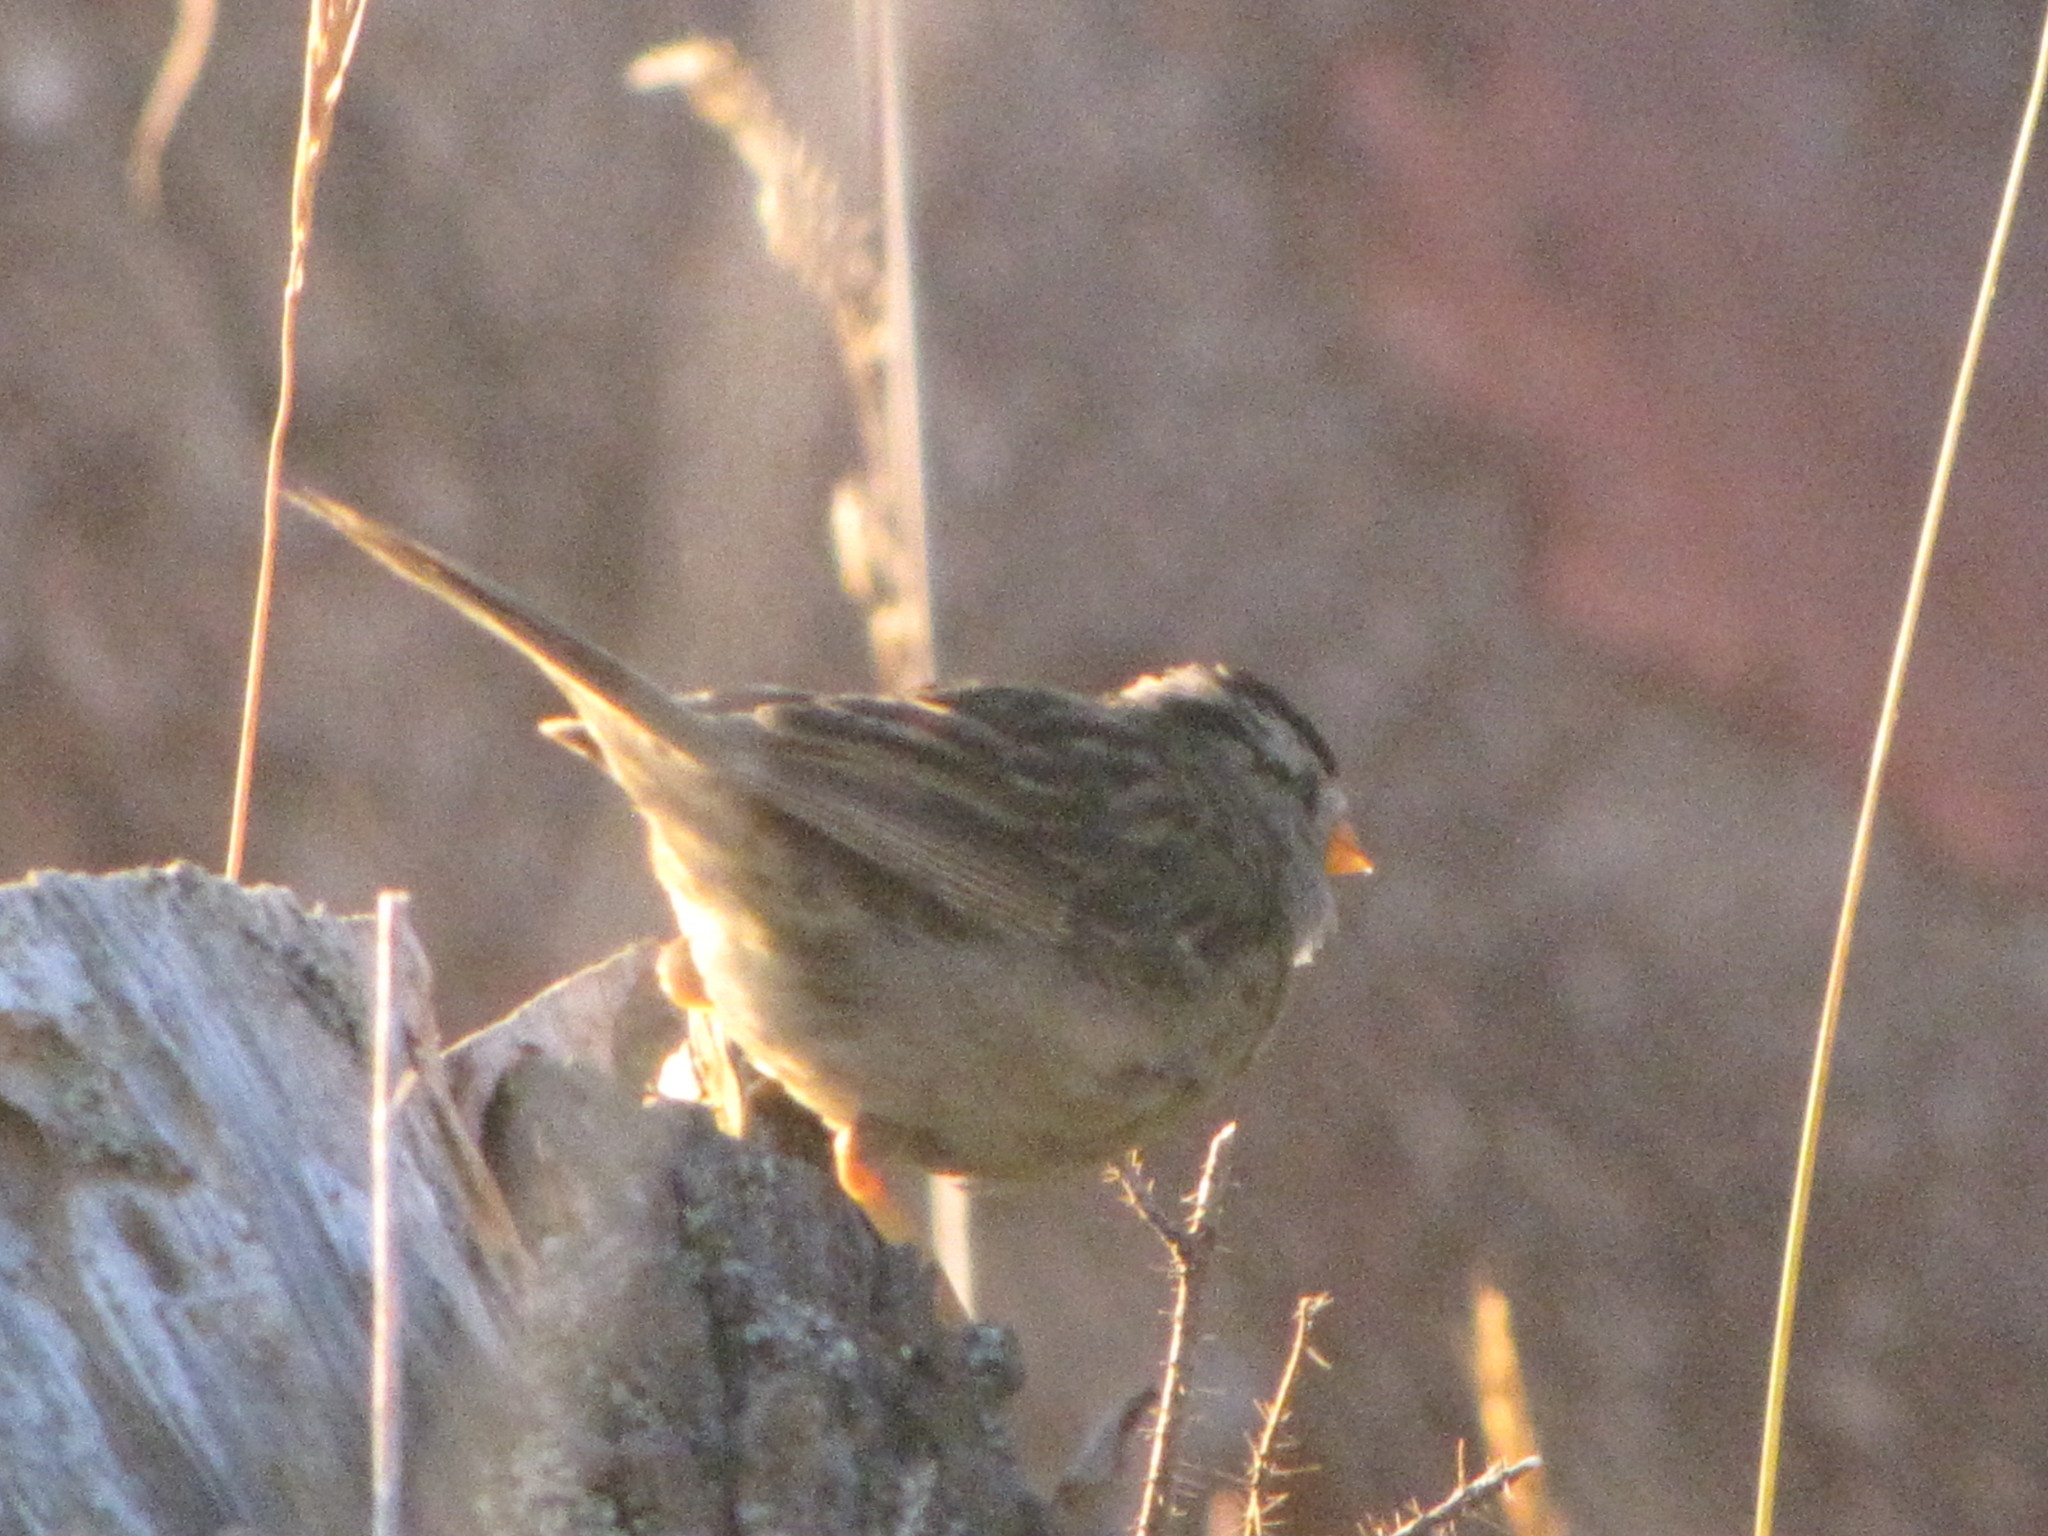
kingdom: Animalia
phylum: Chordata
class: Aves
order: Passeriformes
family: Passerellidae
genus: Zonotrichia
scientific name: Zonotrichia leucophrys
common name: White-crowned sparrow
